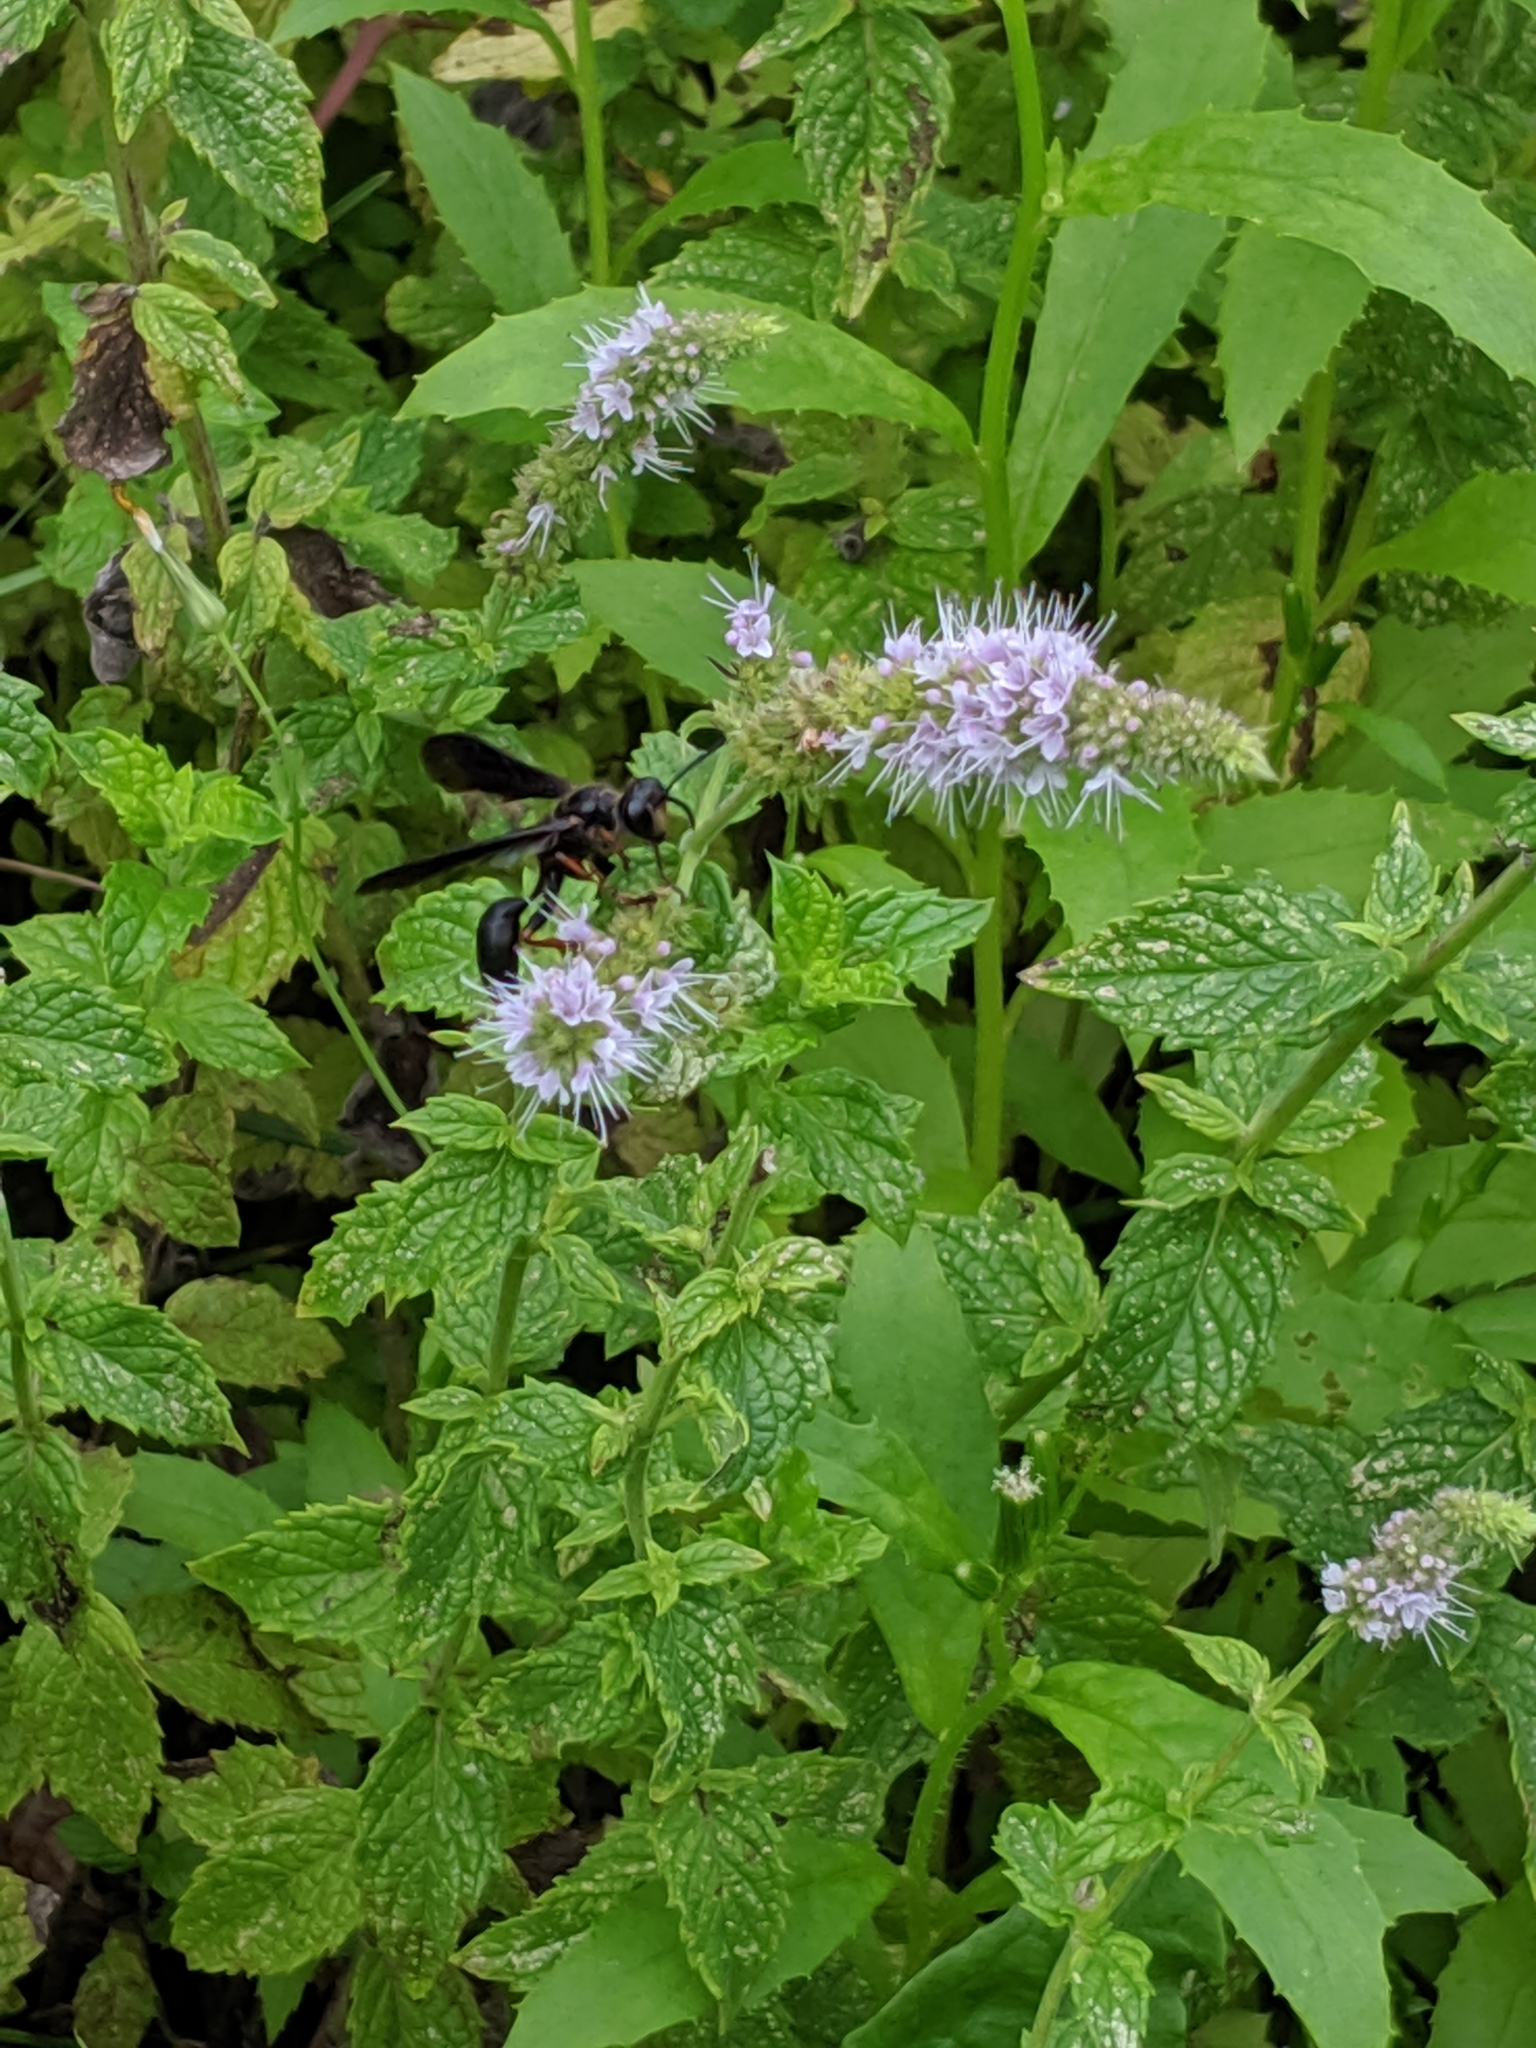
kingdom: Animalia
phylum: Arthropoda
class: Insecta
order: Hymenoptera
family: Sphecidae
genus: Isodontia
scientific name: Isodontia auripes
